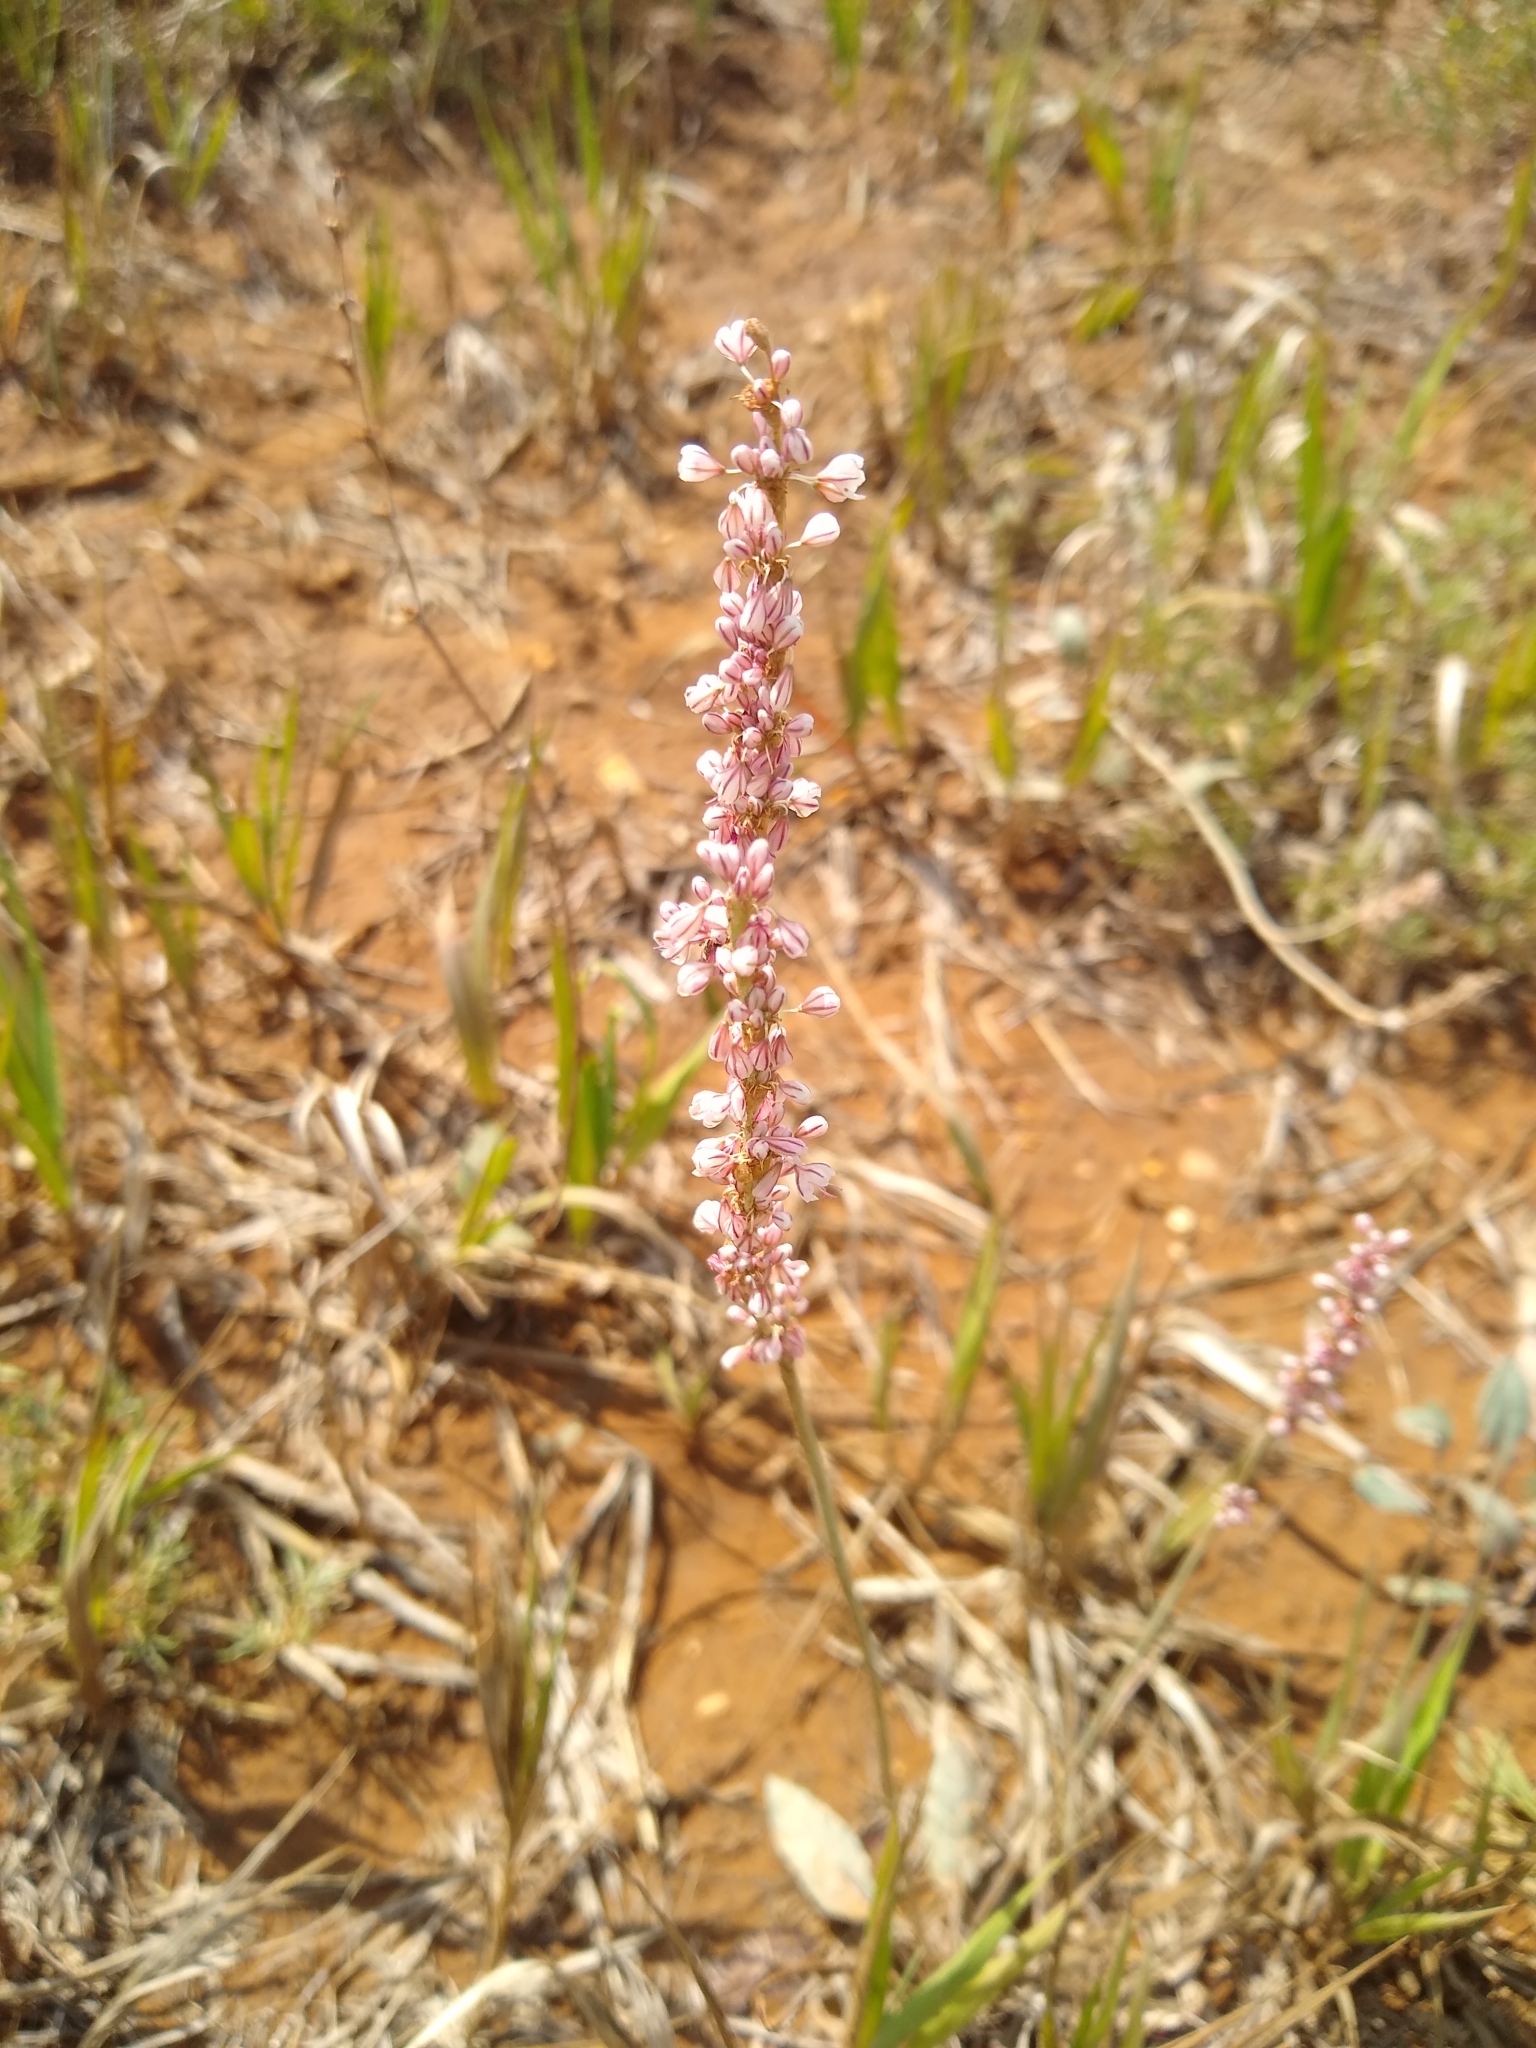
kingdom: Plantae
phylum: Tracheophyta
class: Magnoliopsida
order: Caryophyllales
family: Polygonaceae
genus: Eriogonum
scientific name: Eriogonum racemosum
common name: Redroot wild buckwheat
